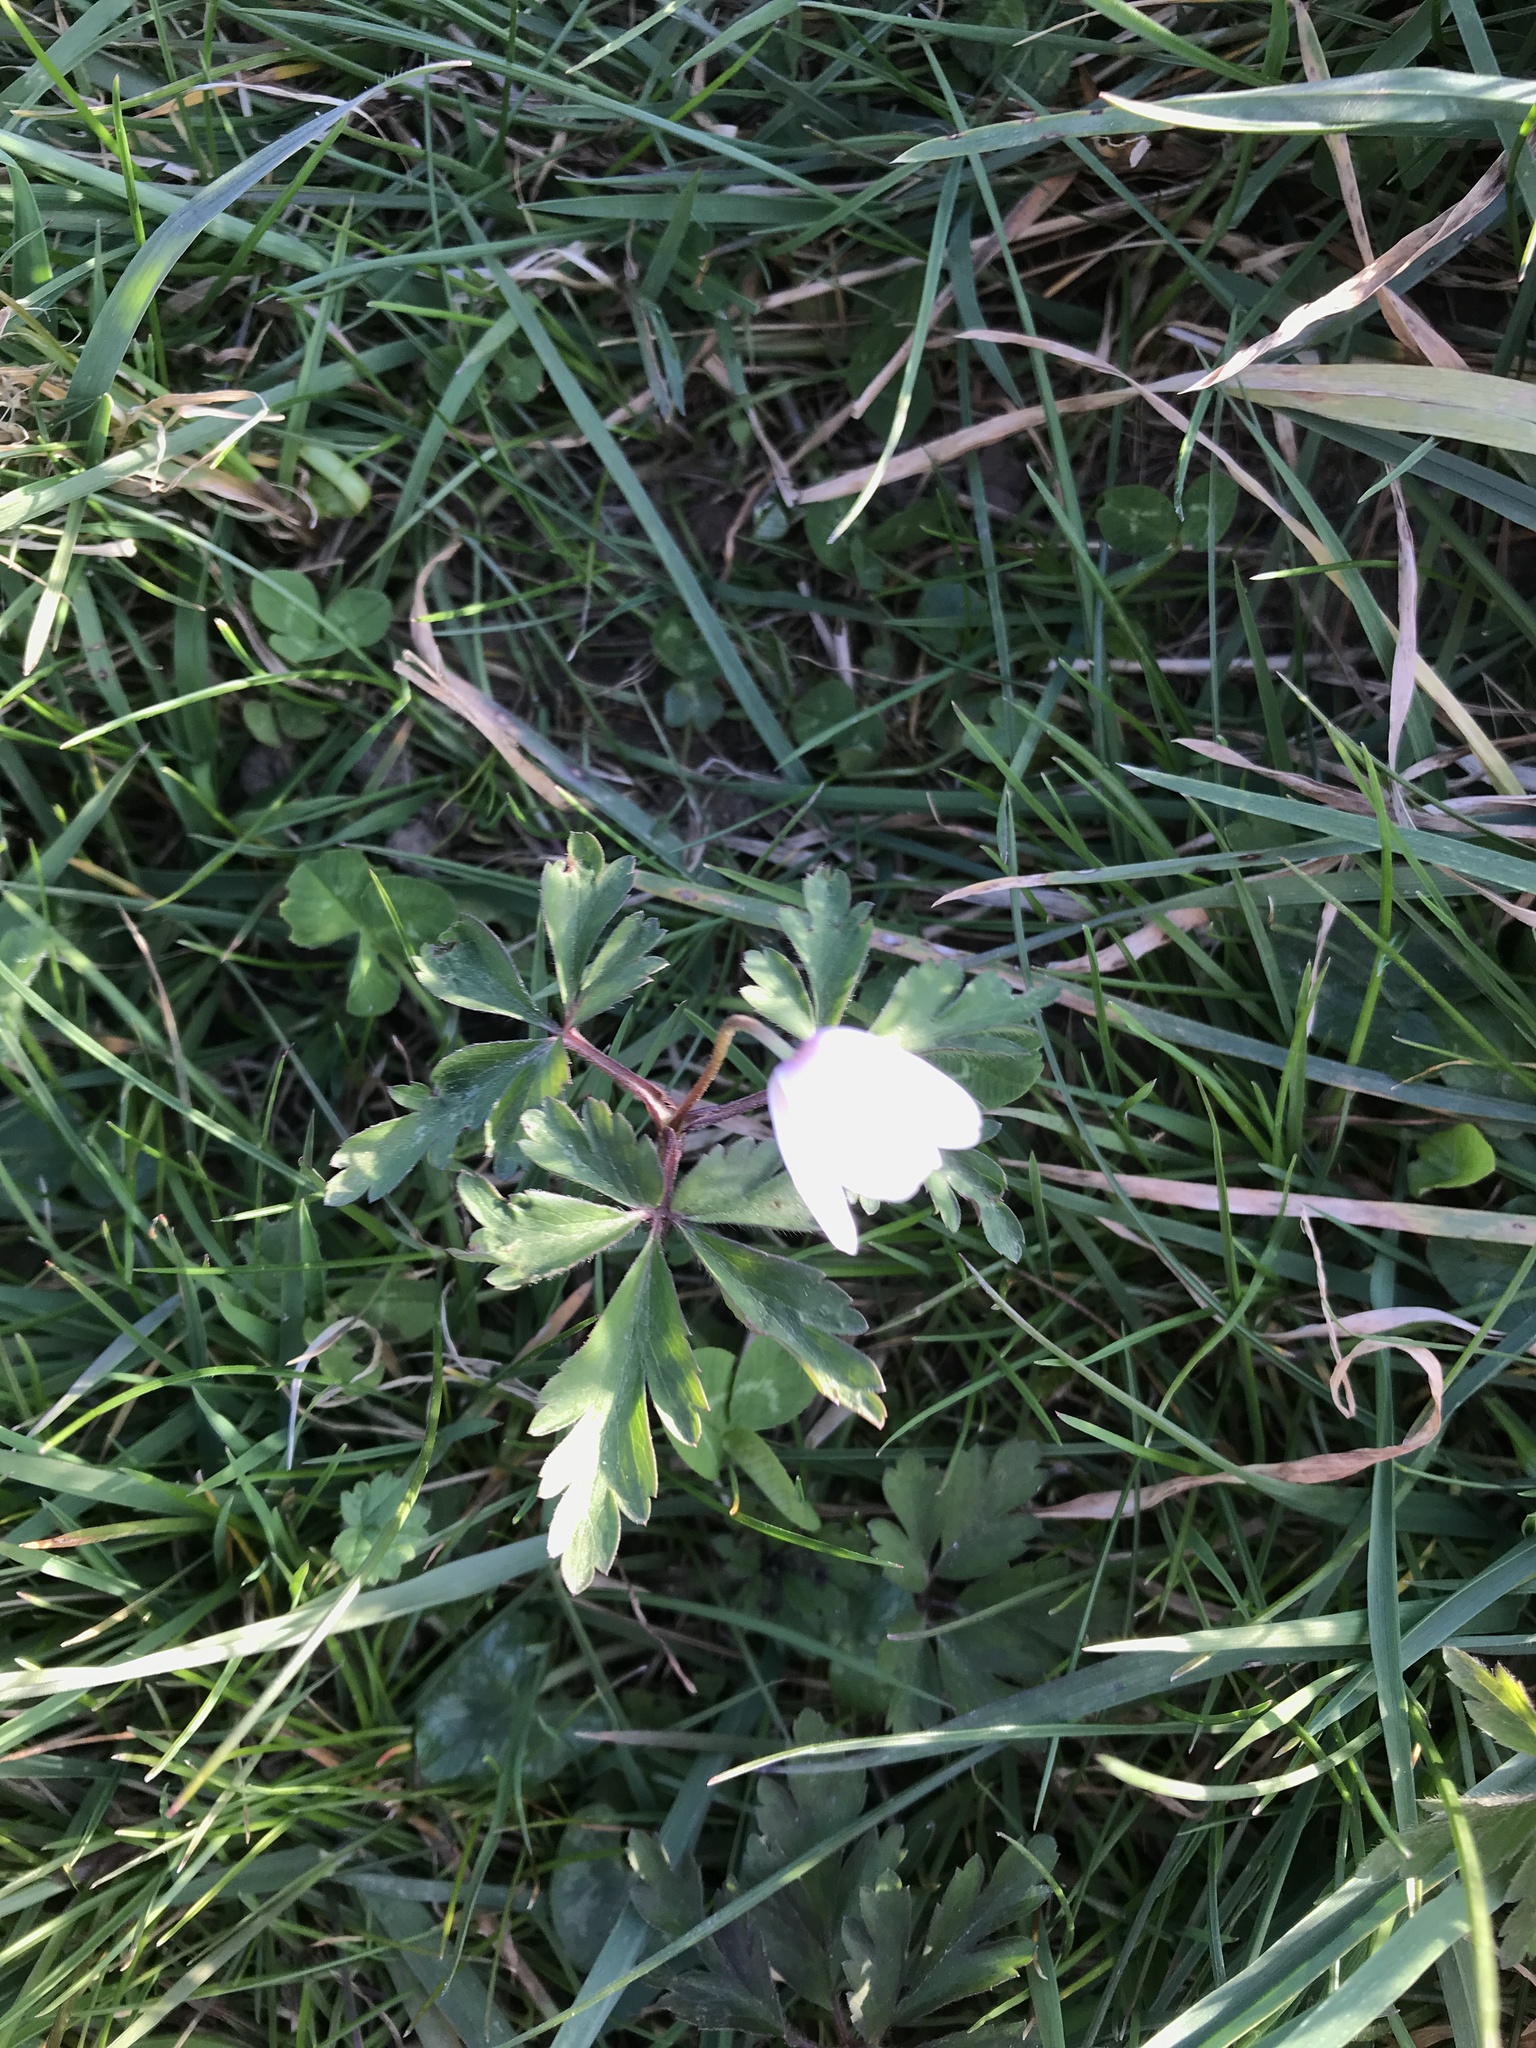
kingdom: Plantae
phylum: Tracheophyta
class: Magnoliopsida
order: Ranunculales
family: Ranunculaceae
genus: Anemone
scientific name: Anemone nemorosa
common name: Wood anemone
